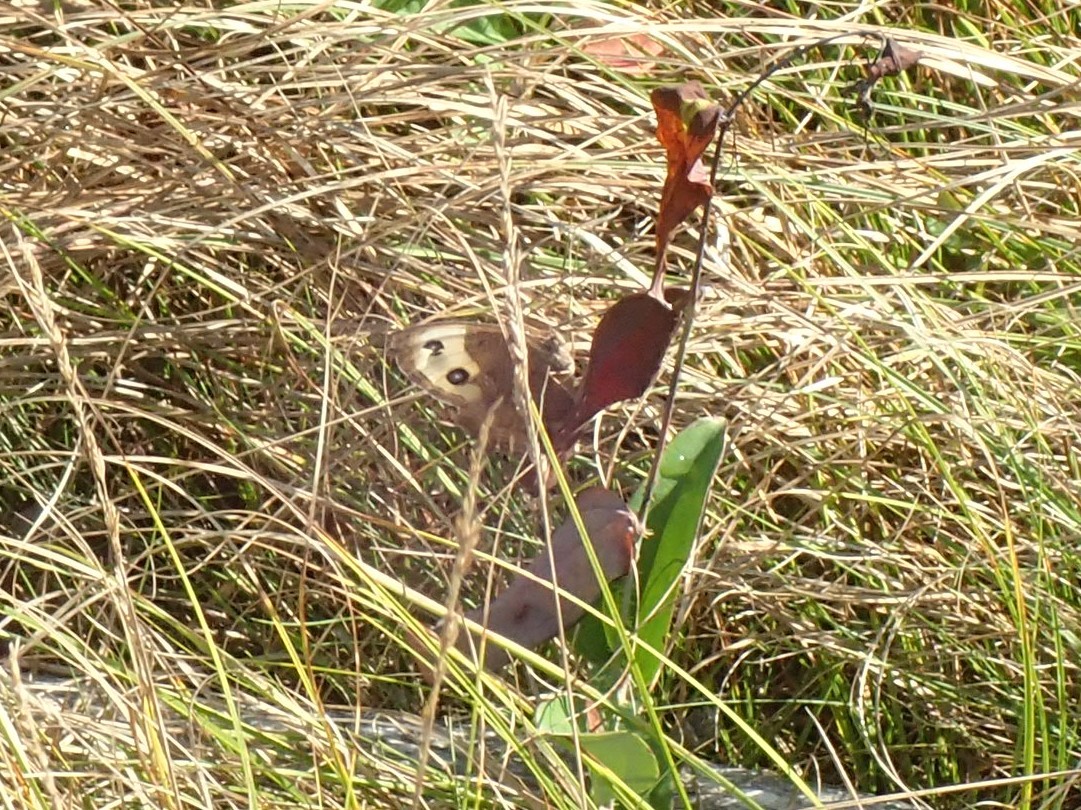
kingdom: Animalia
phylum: Arthropoda
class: Insecta
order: Lepidoptera
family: Nymphalidae
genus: Cercyonis
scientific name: Cercyonis pegala
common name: Common wood-nymph
